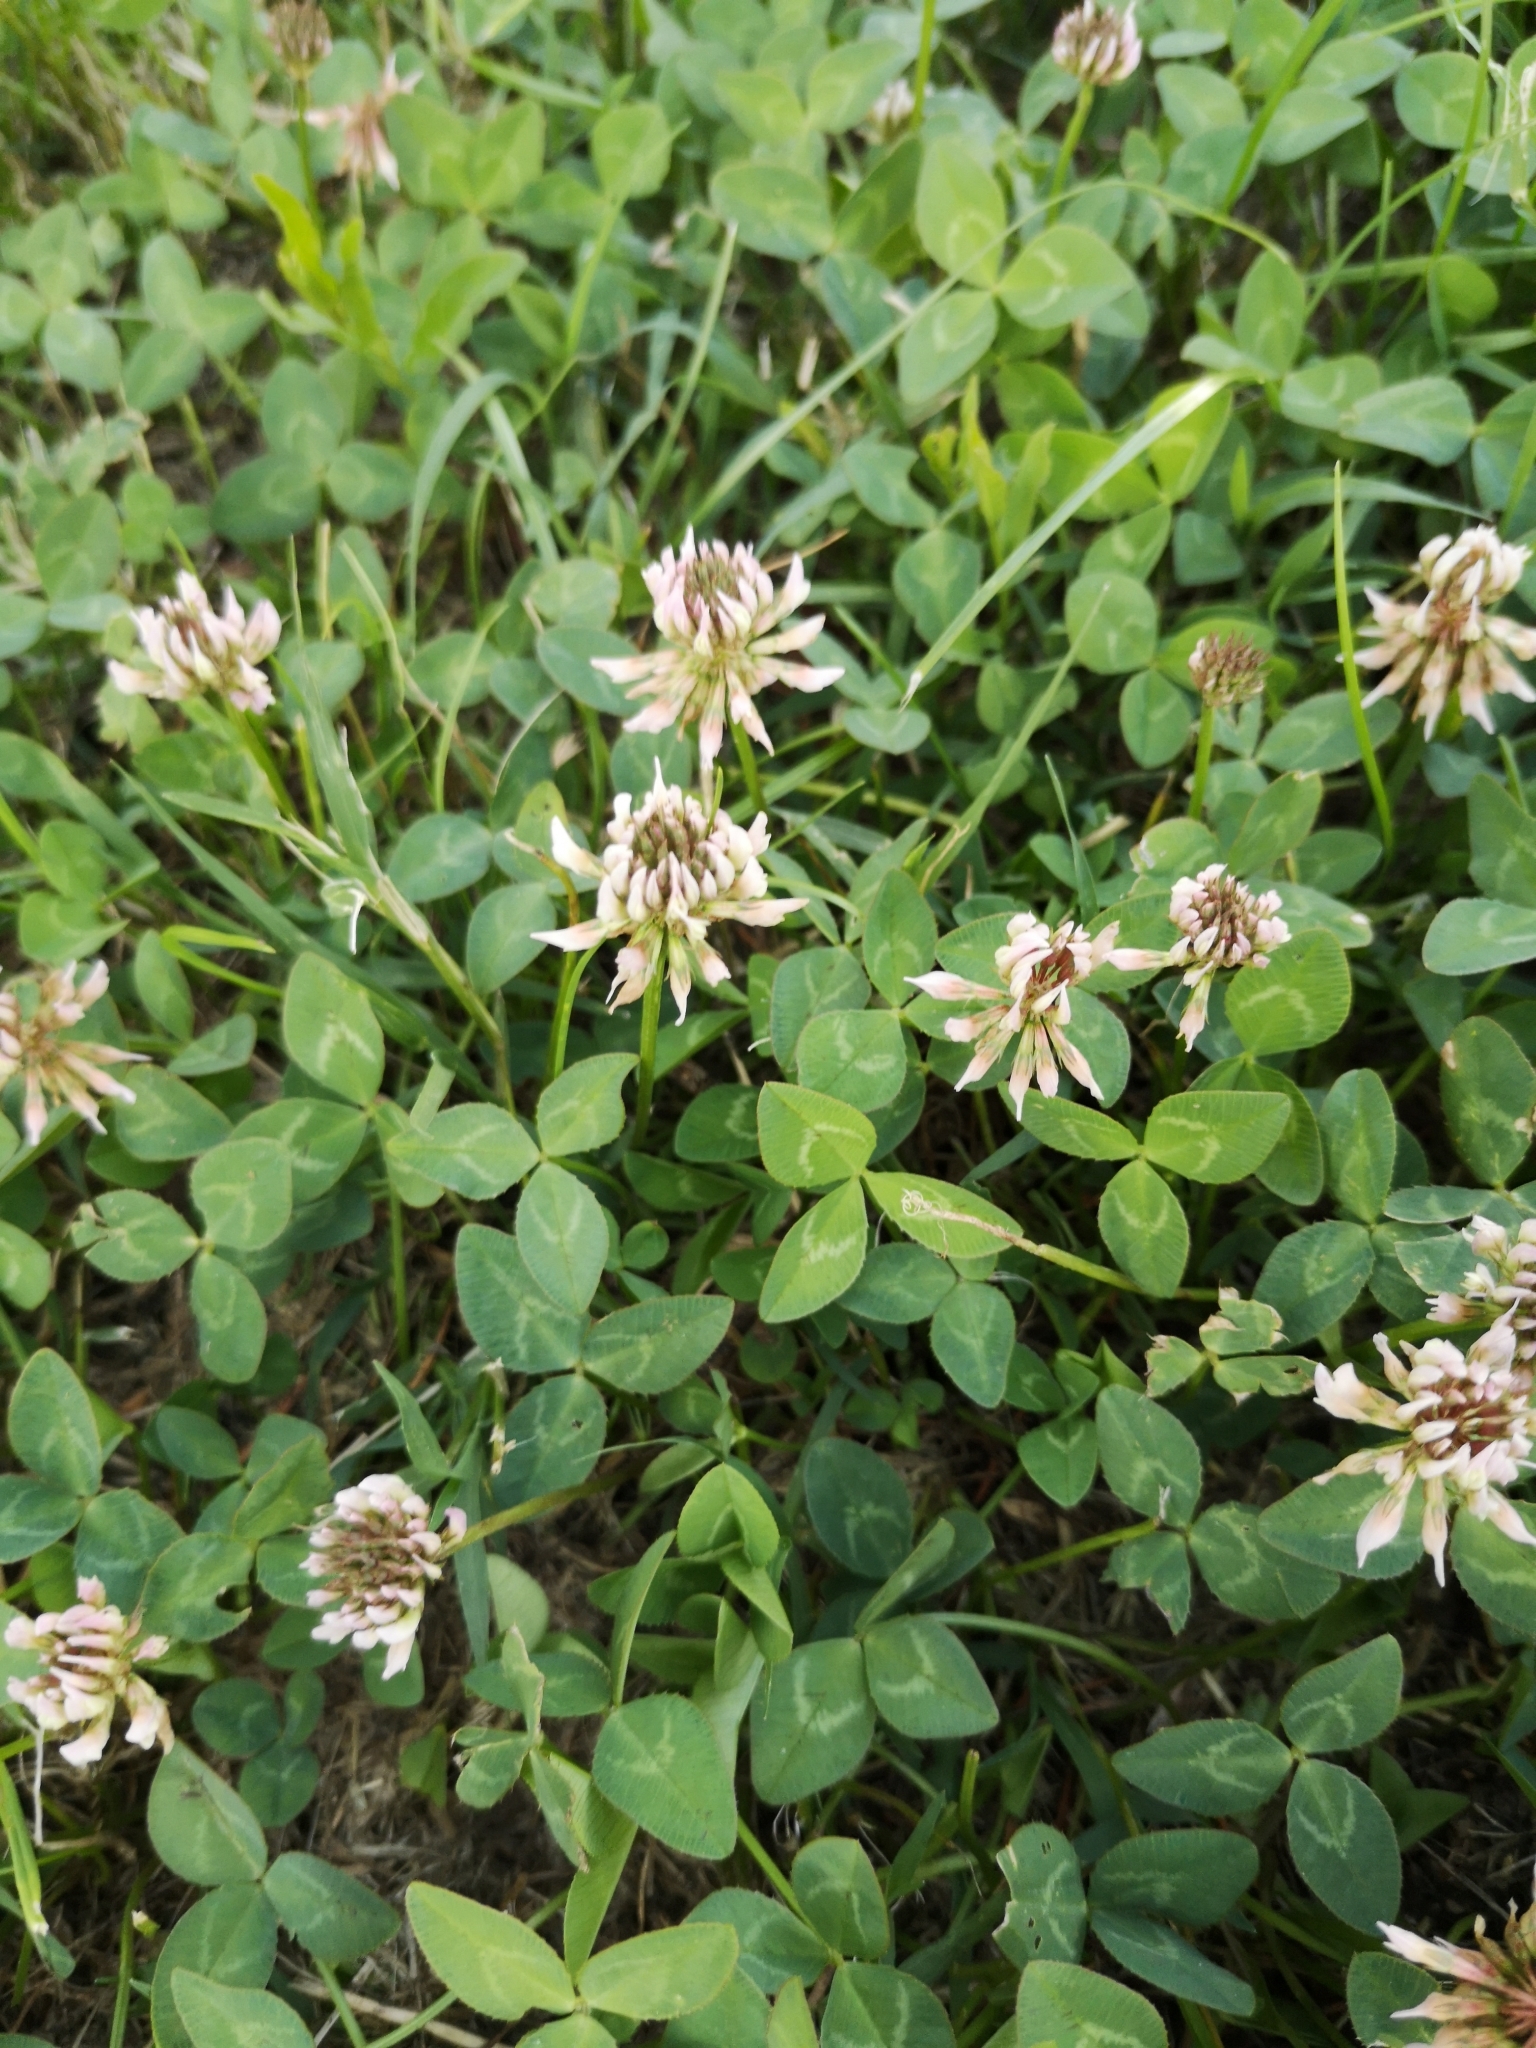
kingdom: Plantae
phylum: Tracheophyta
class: Magnoliopsida
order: Fabales
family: Fabaceae
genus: Trifolium
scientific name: Trifolium repens
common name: White clover
